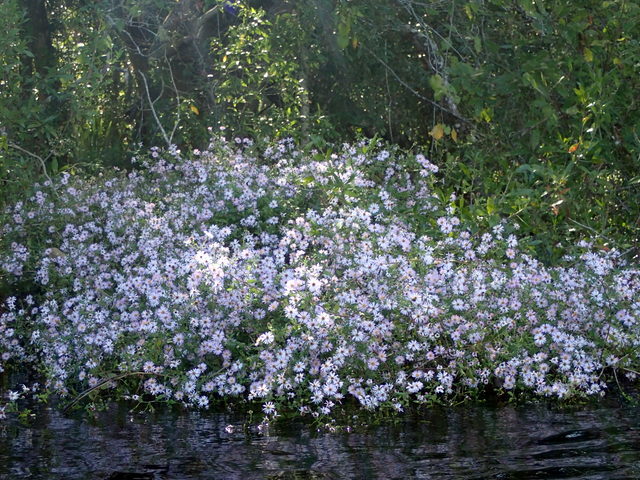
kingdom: Plantae
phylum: Tracheophyta
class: Magnoliopsida
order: Asterales
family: Asteraceae
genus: Ampelaster
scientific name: Ampelaster carolinianus
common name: Climbing aster
